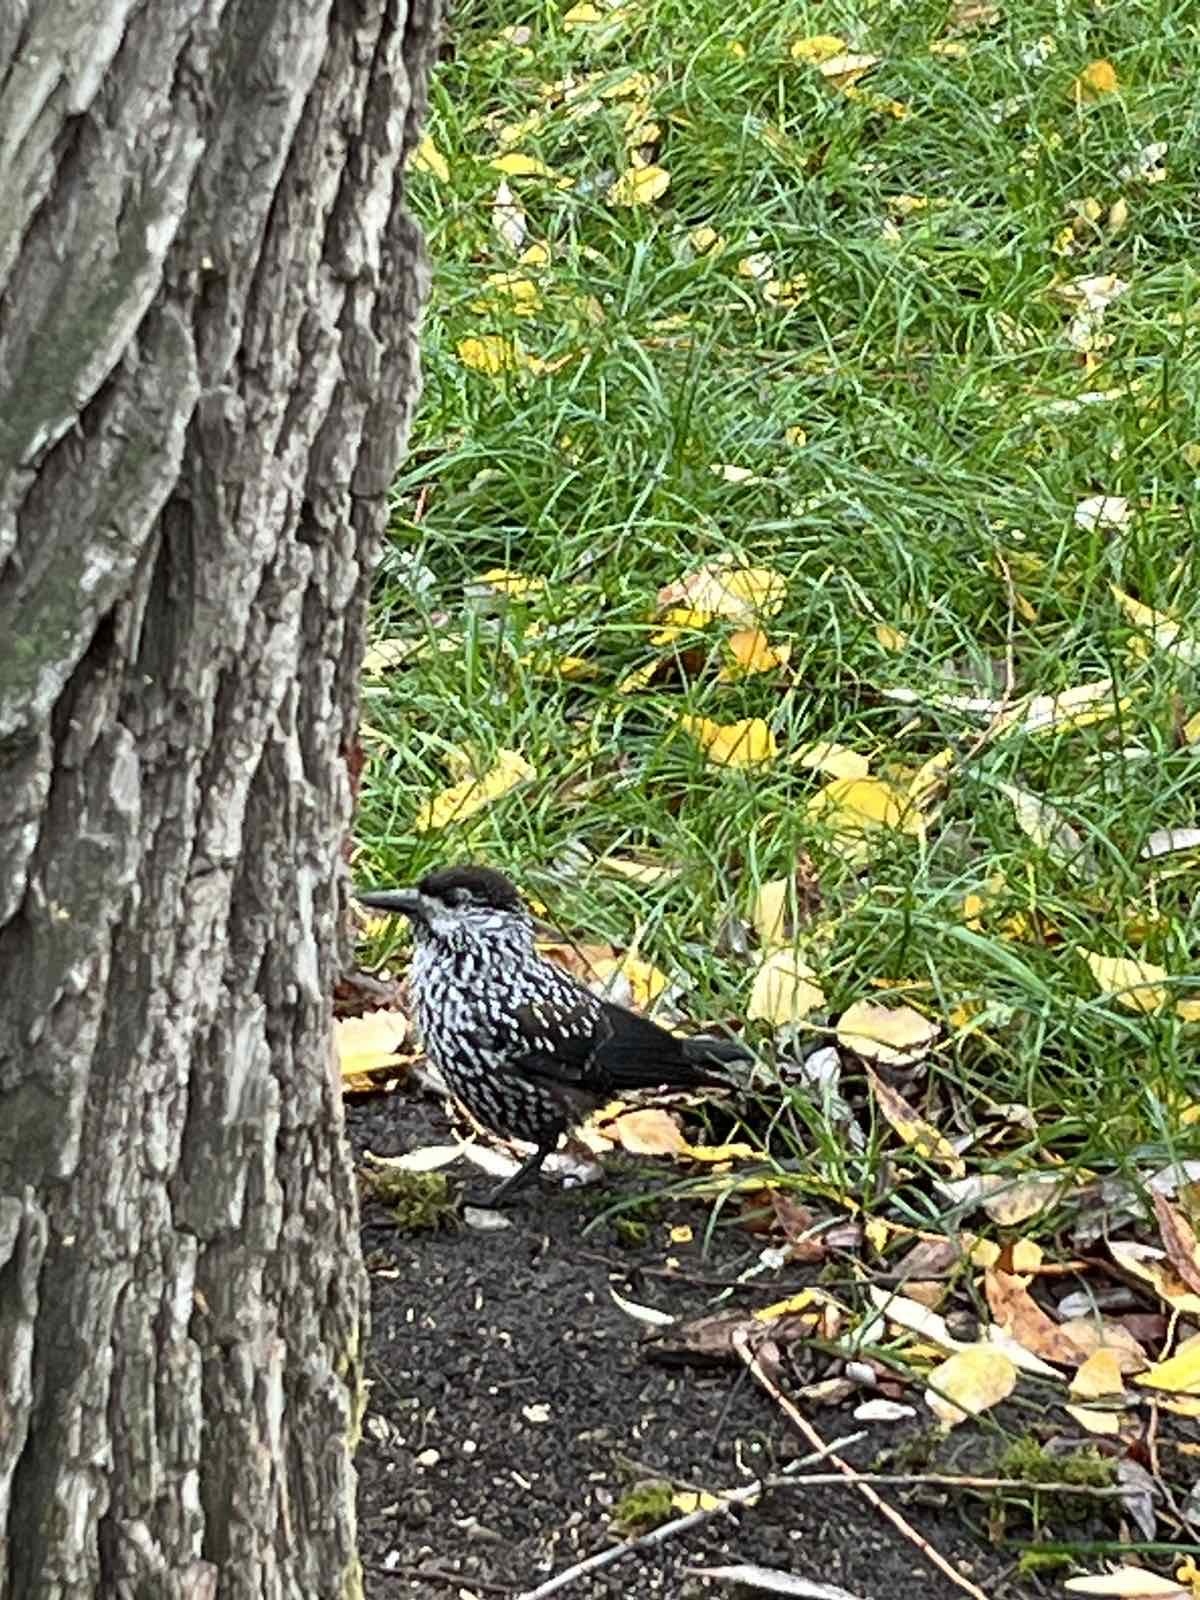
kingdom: Animalia
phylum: Chordata
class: Aves
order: Passeriformes
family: Corvidae
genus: Nucifraga
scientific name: Nucifraga caryocatactes
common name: Spotted nutcracker
